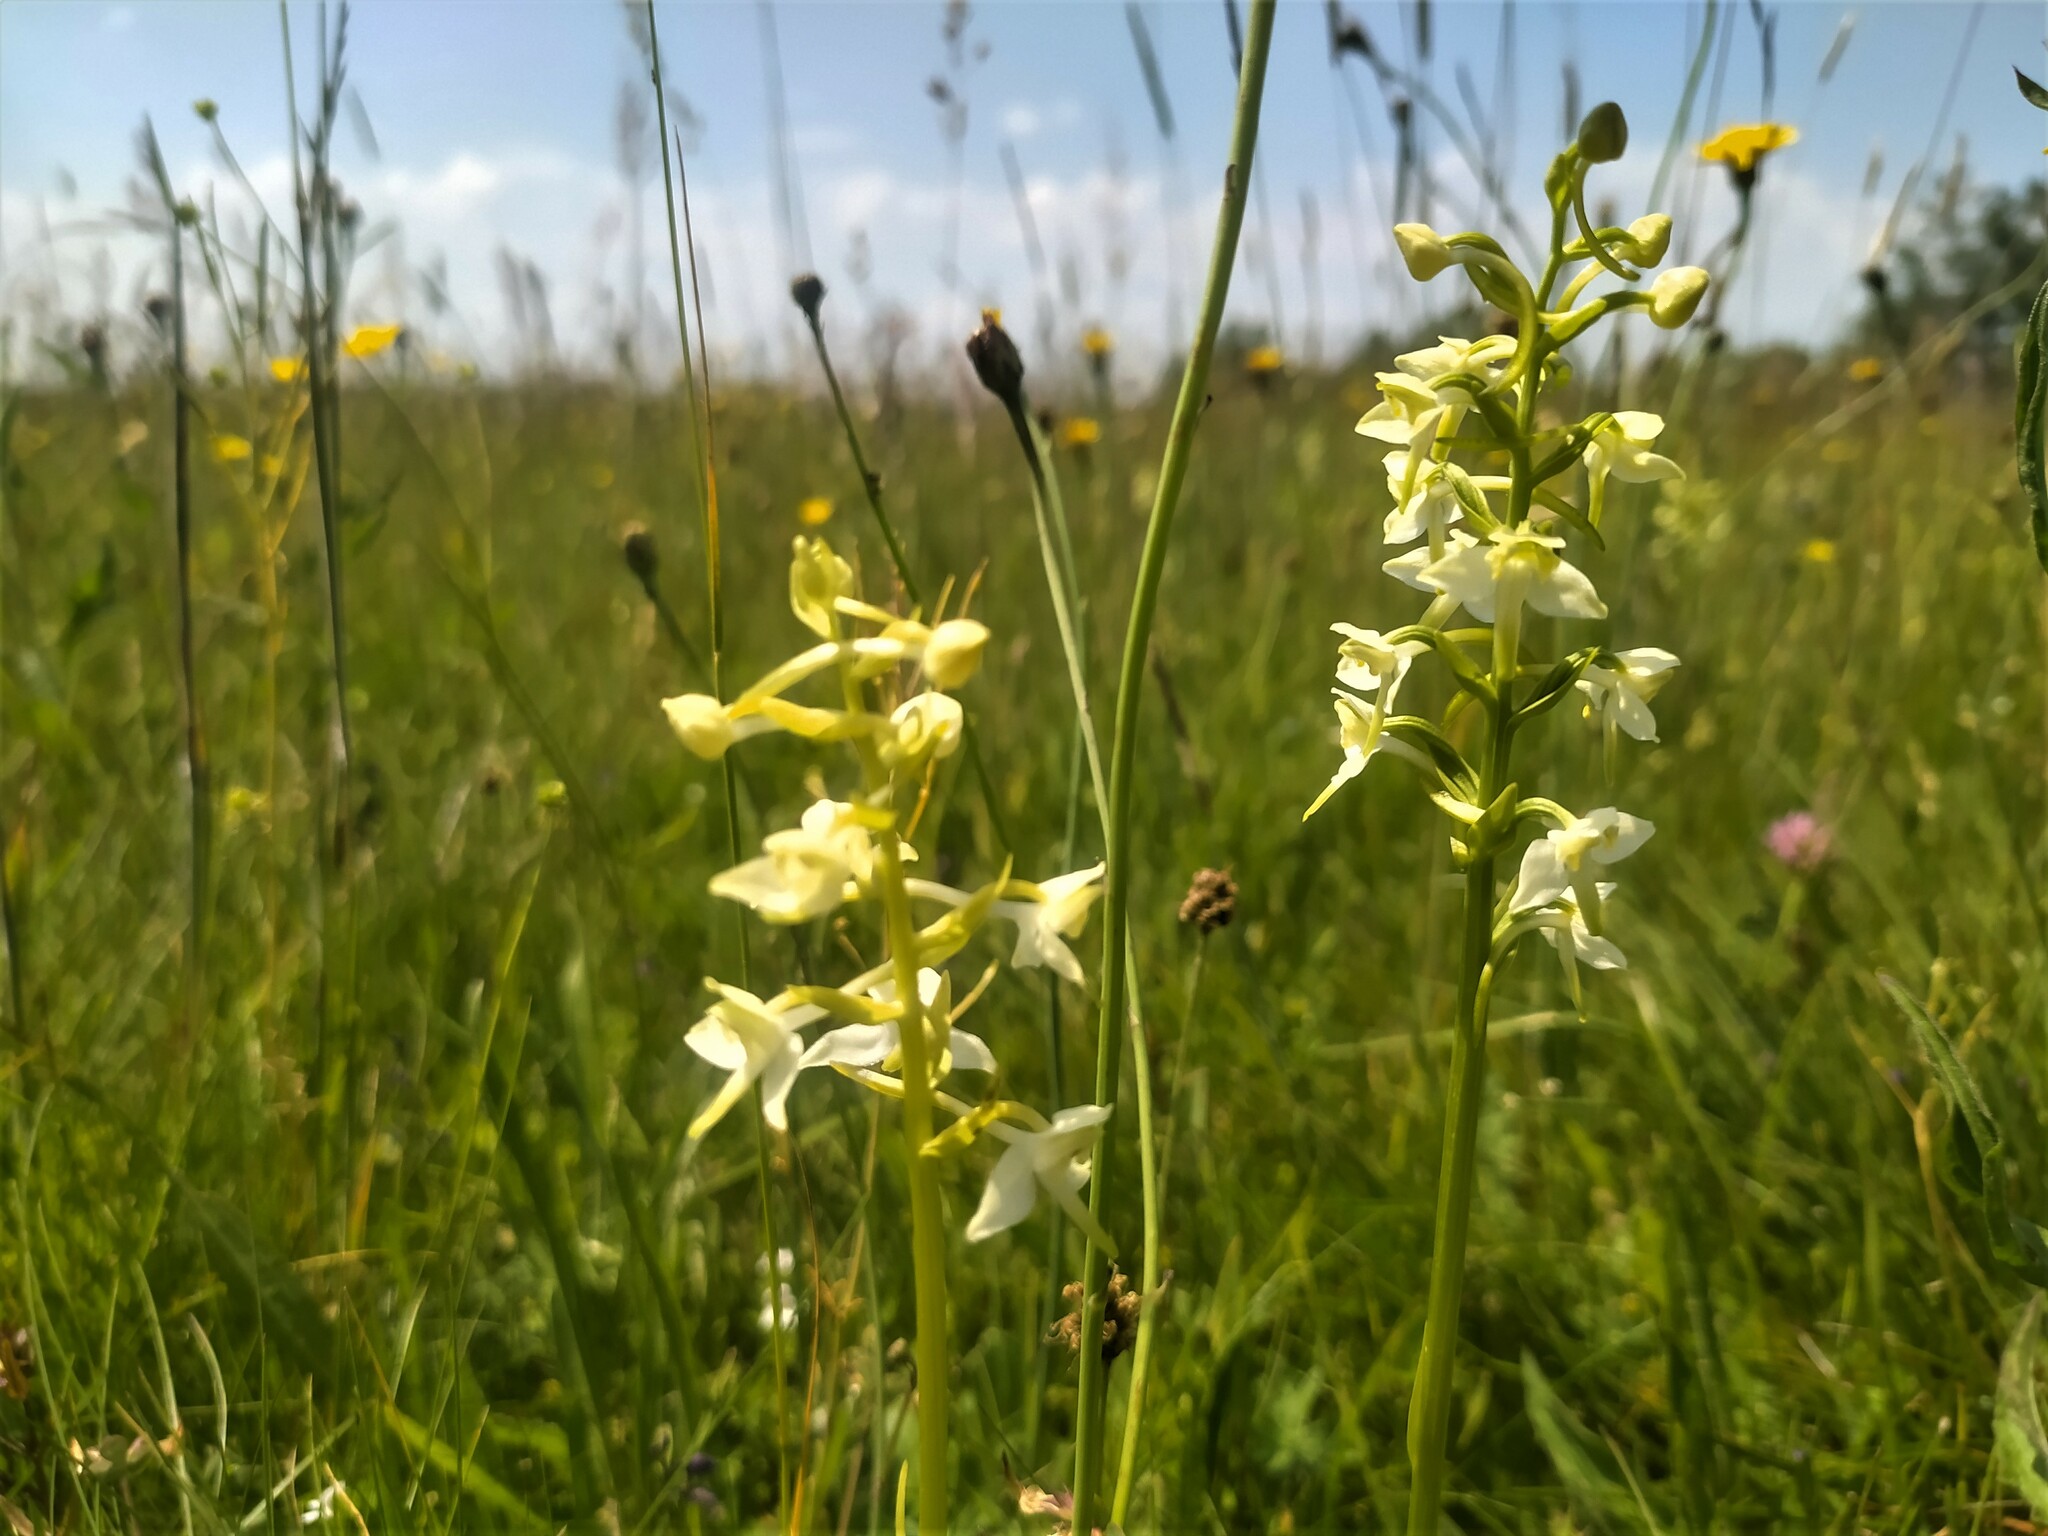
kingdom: Plantae
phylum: Tracheophyta
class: Liliopsida
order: Asparagales
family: Orchidaceae
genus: Platanthera
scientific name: Platanthera chlorantha
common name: Greater butterfly-orchid
